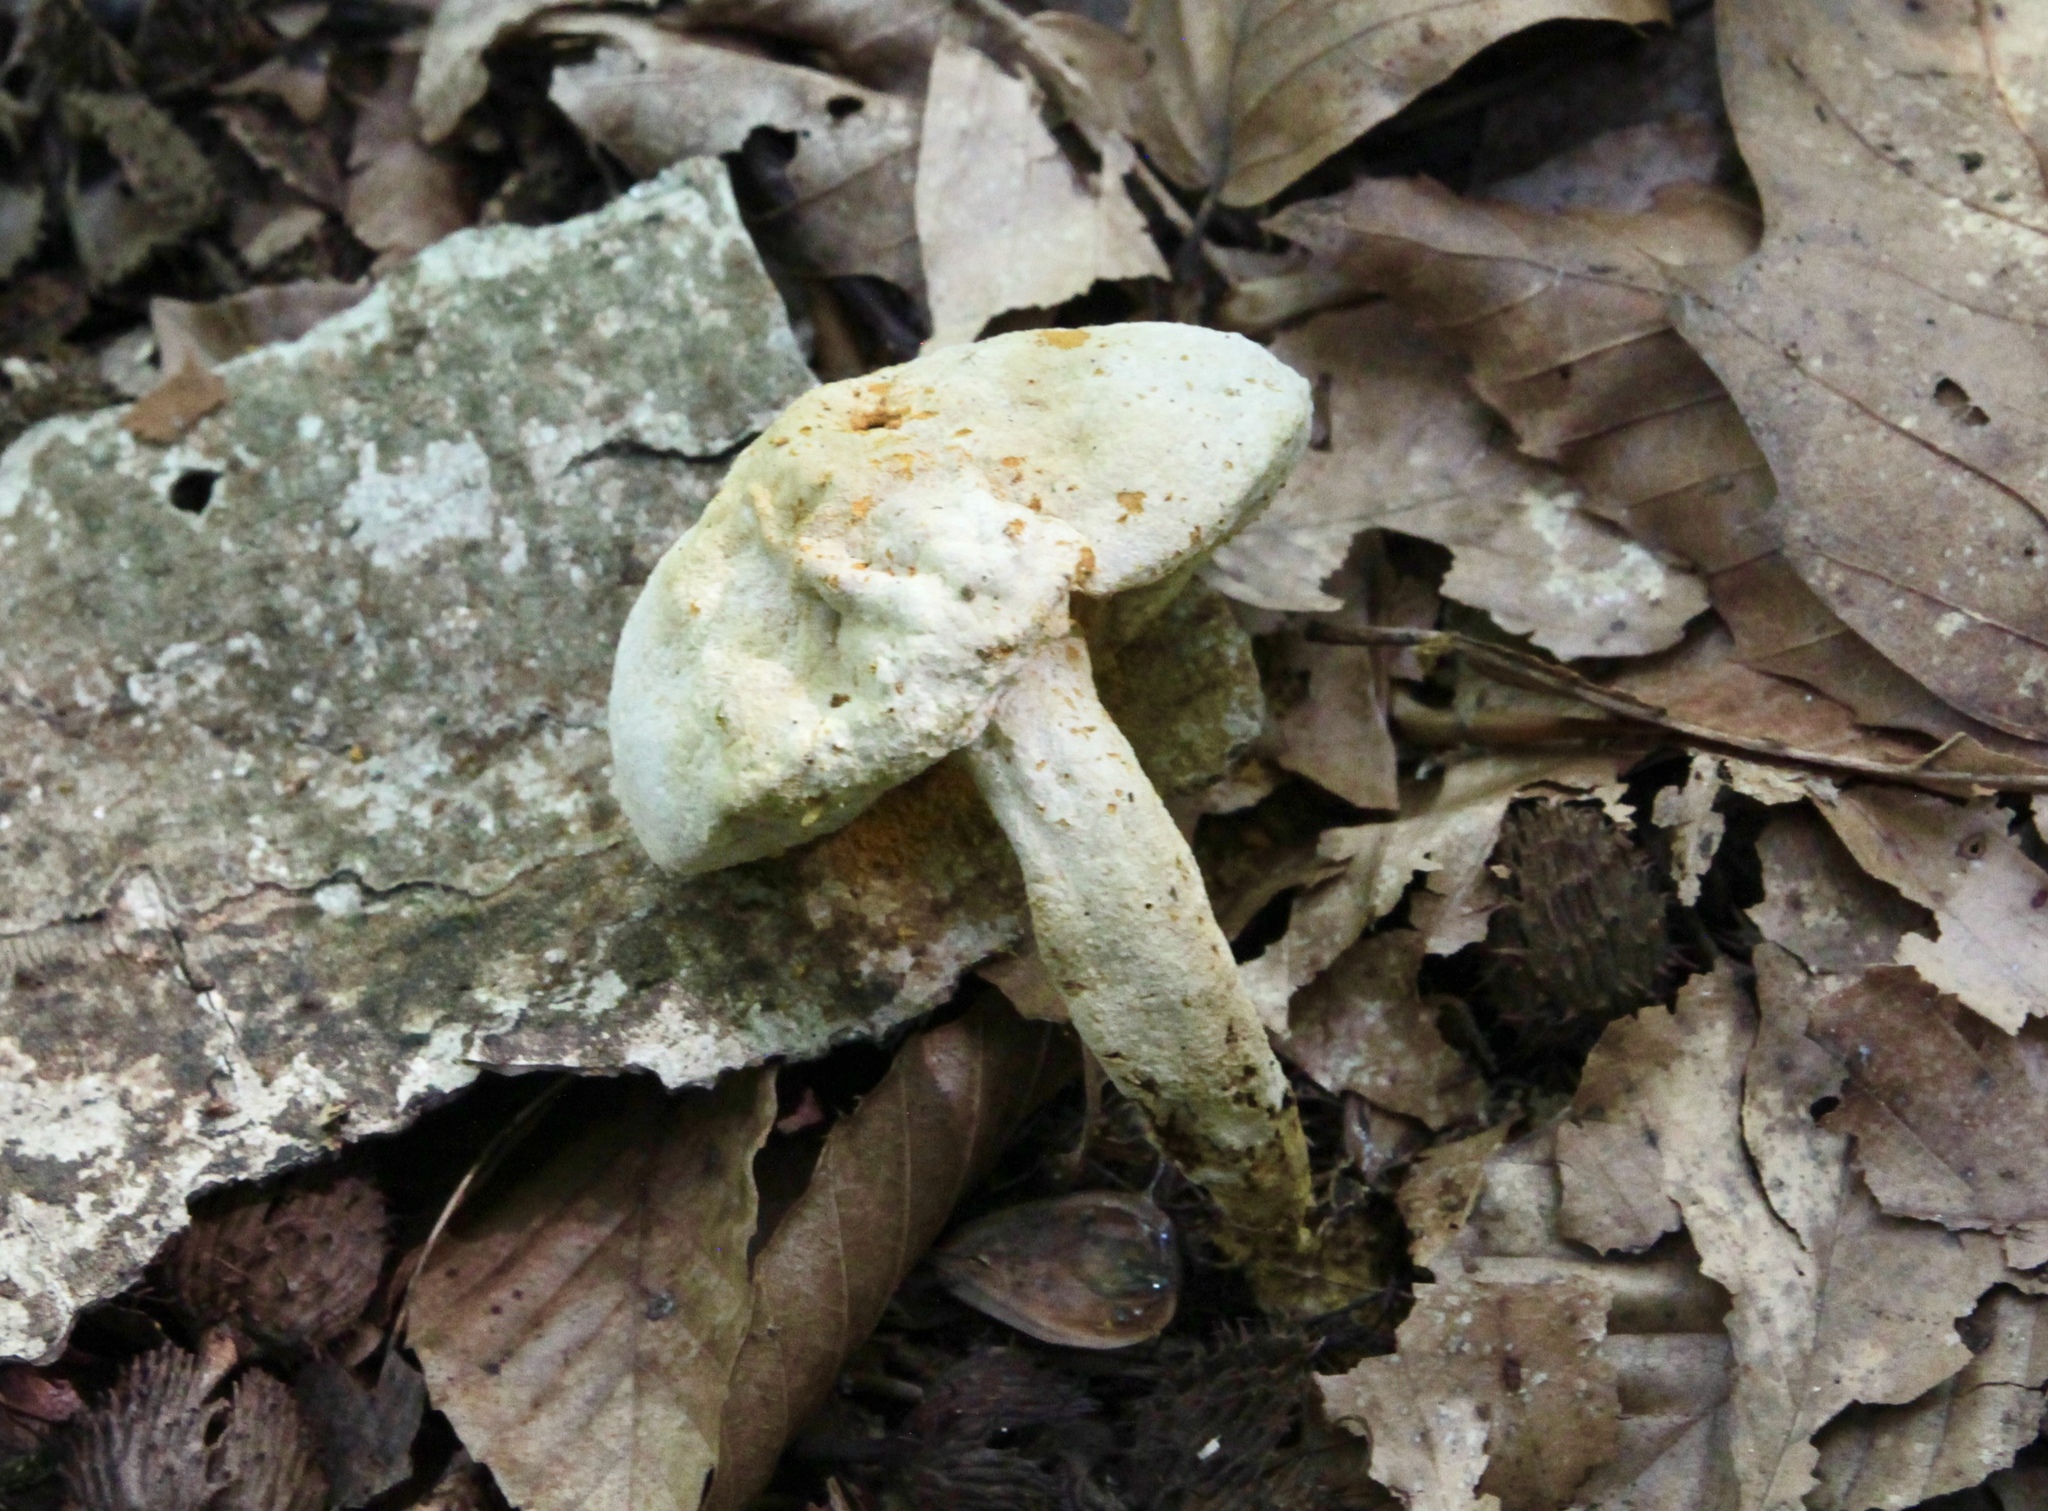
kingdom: Fungi
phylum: Ascomycota
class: Sordariomycetes
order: Hypocreales
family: Hypocreaceae
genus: Hypomyces
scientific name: Hypomyces chrysospermus
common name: Bolete mould
